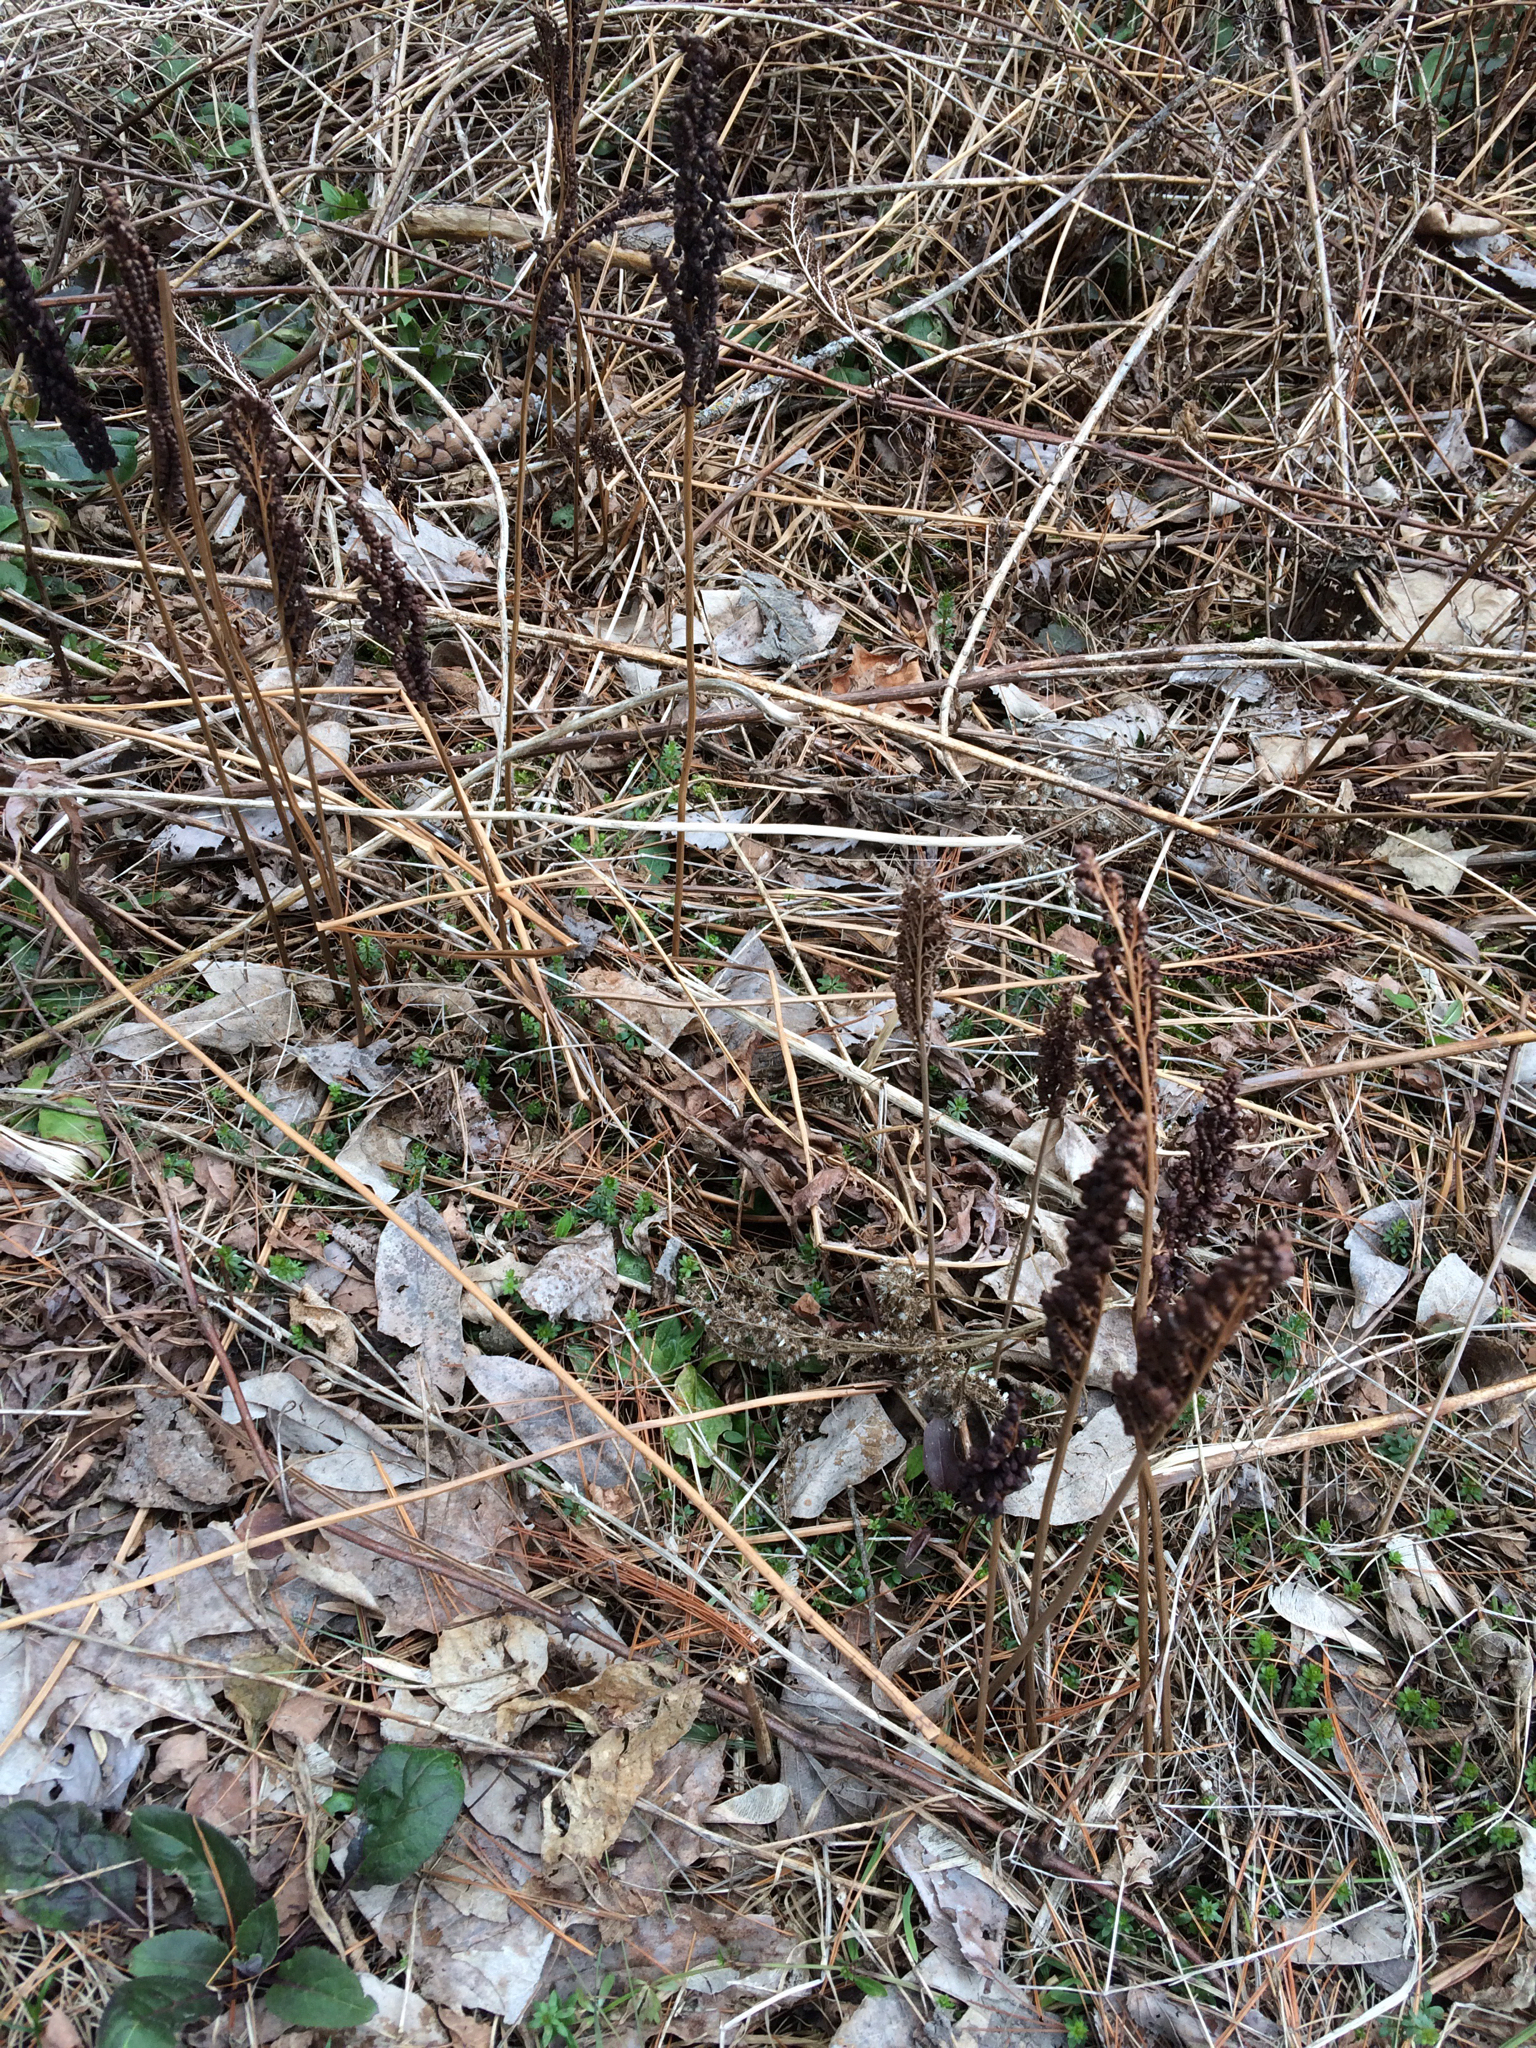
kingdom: Plantae
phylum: Tracheophyta
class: Polypodiopsida
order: Polypodiales
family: Onocleaceae
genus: Onoclea
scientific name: Onoclea sensibilis
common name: Sensitive fern
